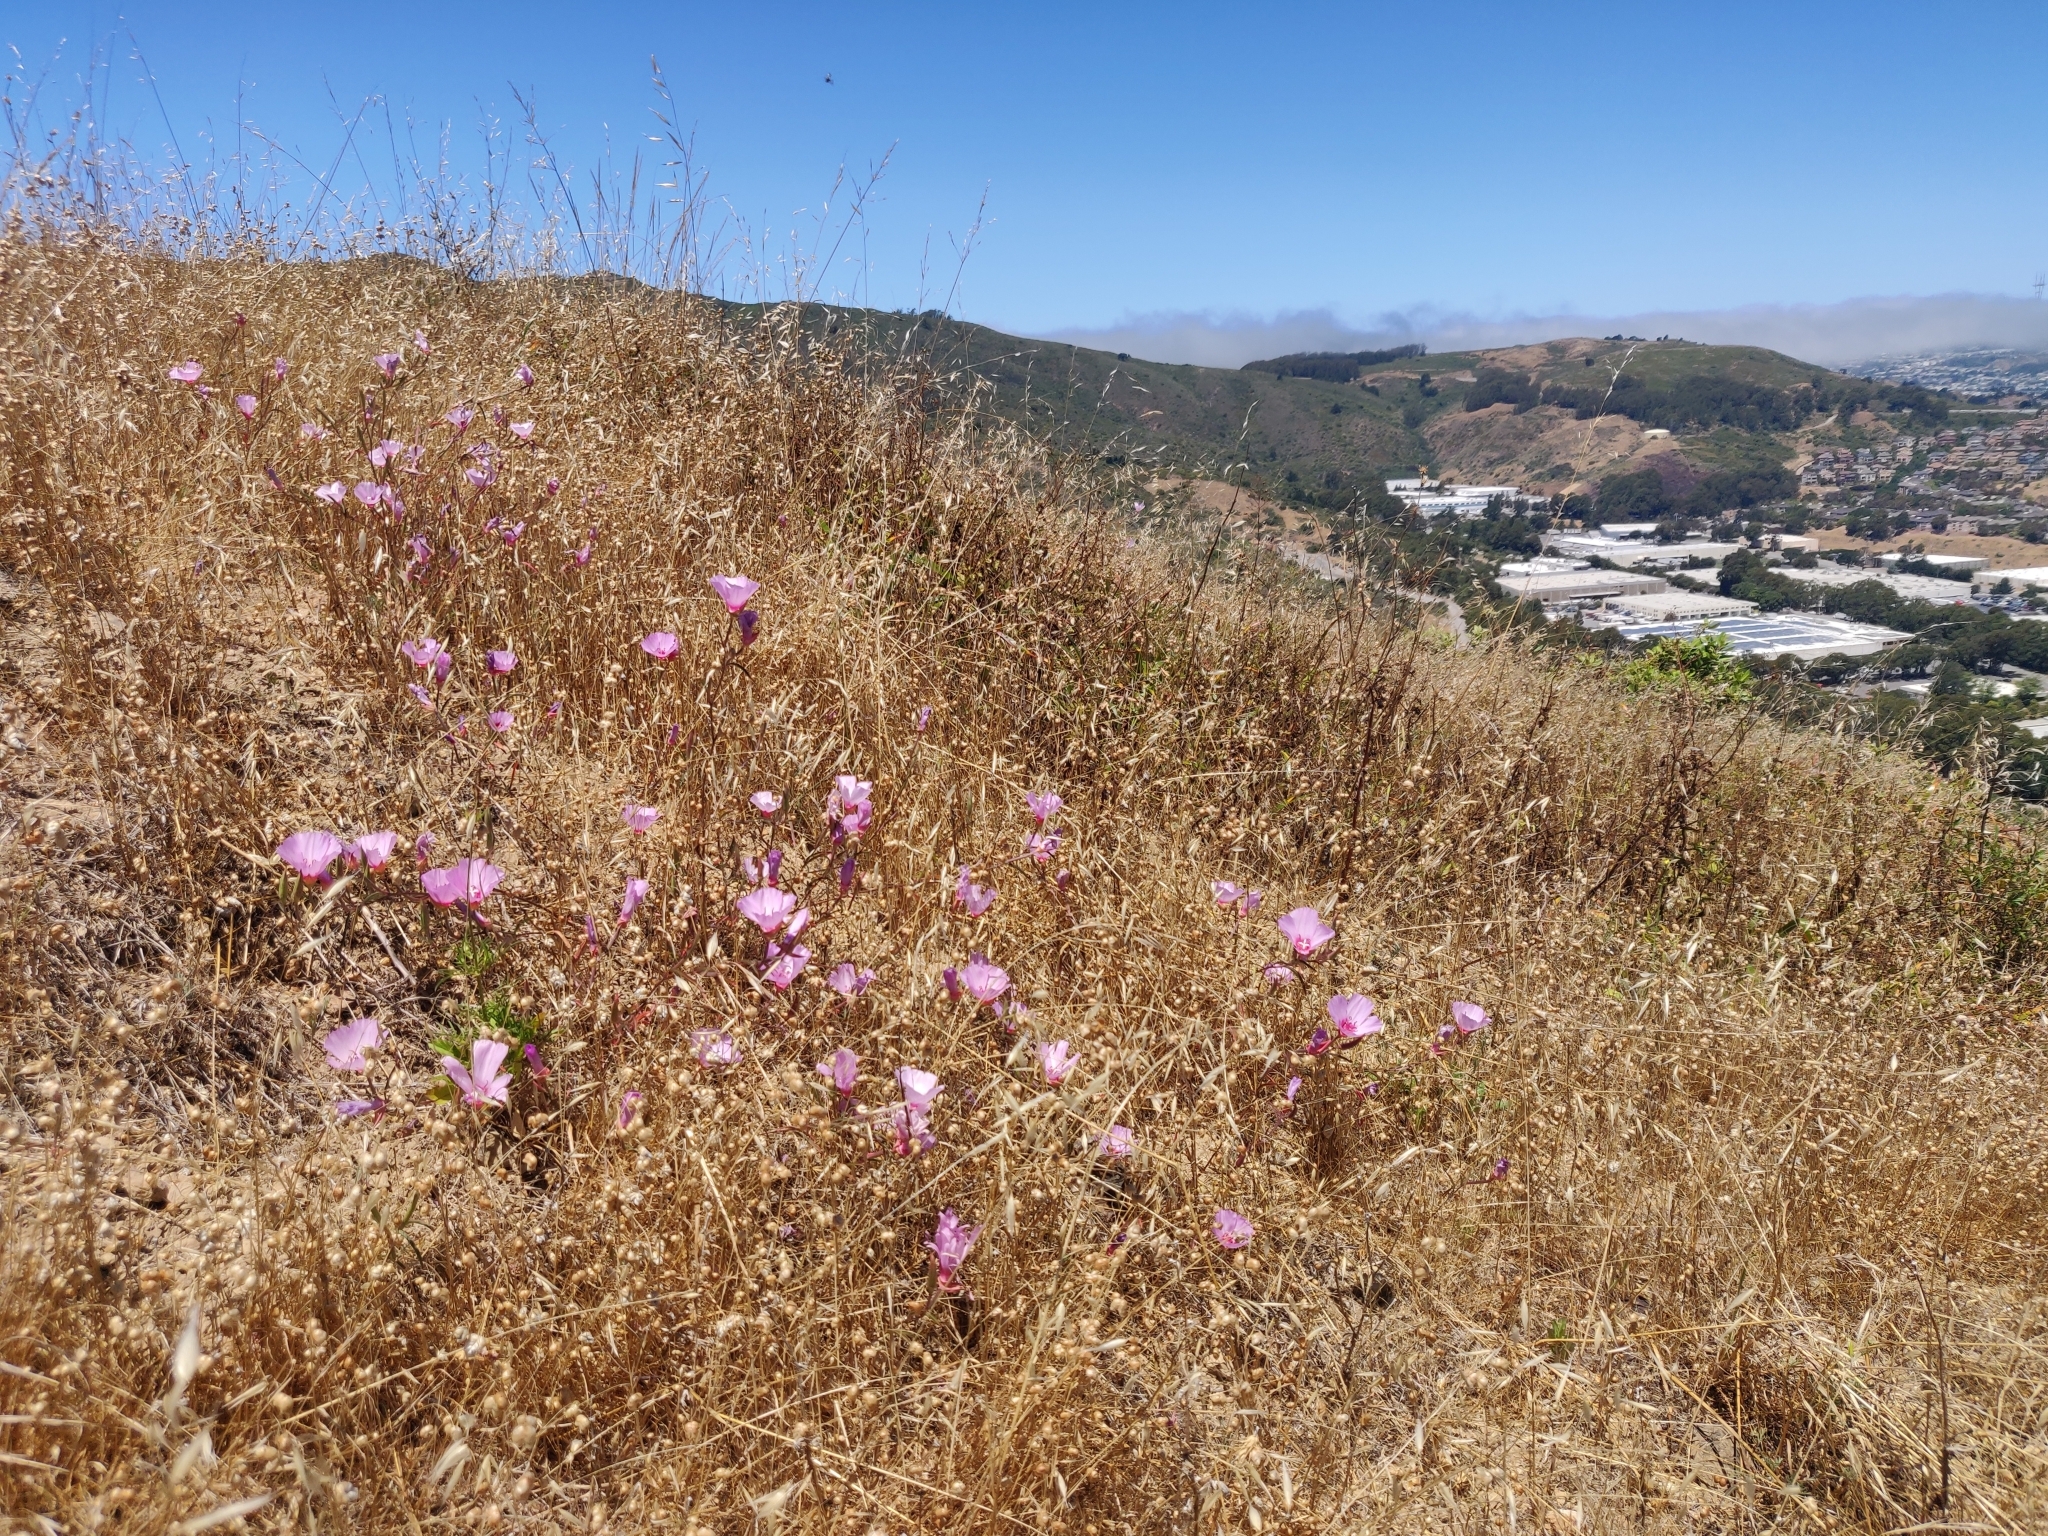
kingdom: Plantae
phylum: Tracheophyta
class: Magnoliopsida
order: Myrtales
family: Onagraceae
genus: Clarkia
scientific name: Clarkia rubicunda
